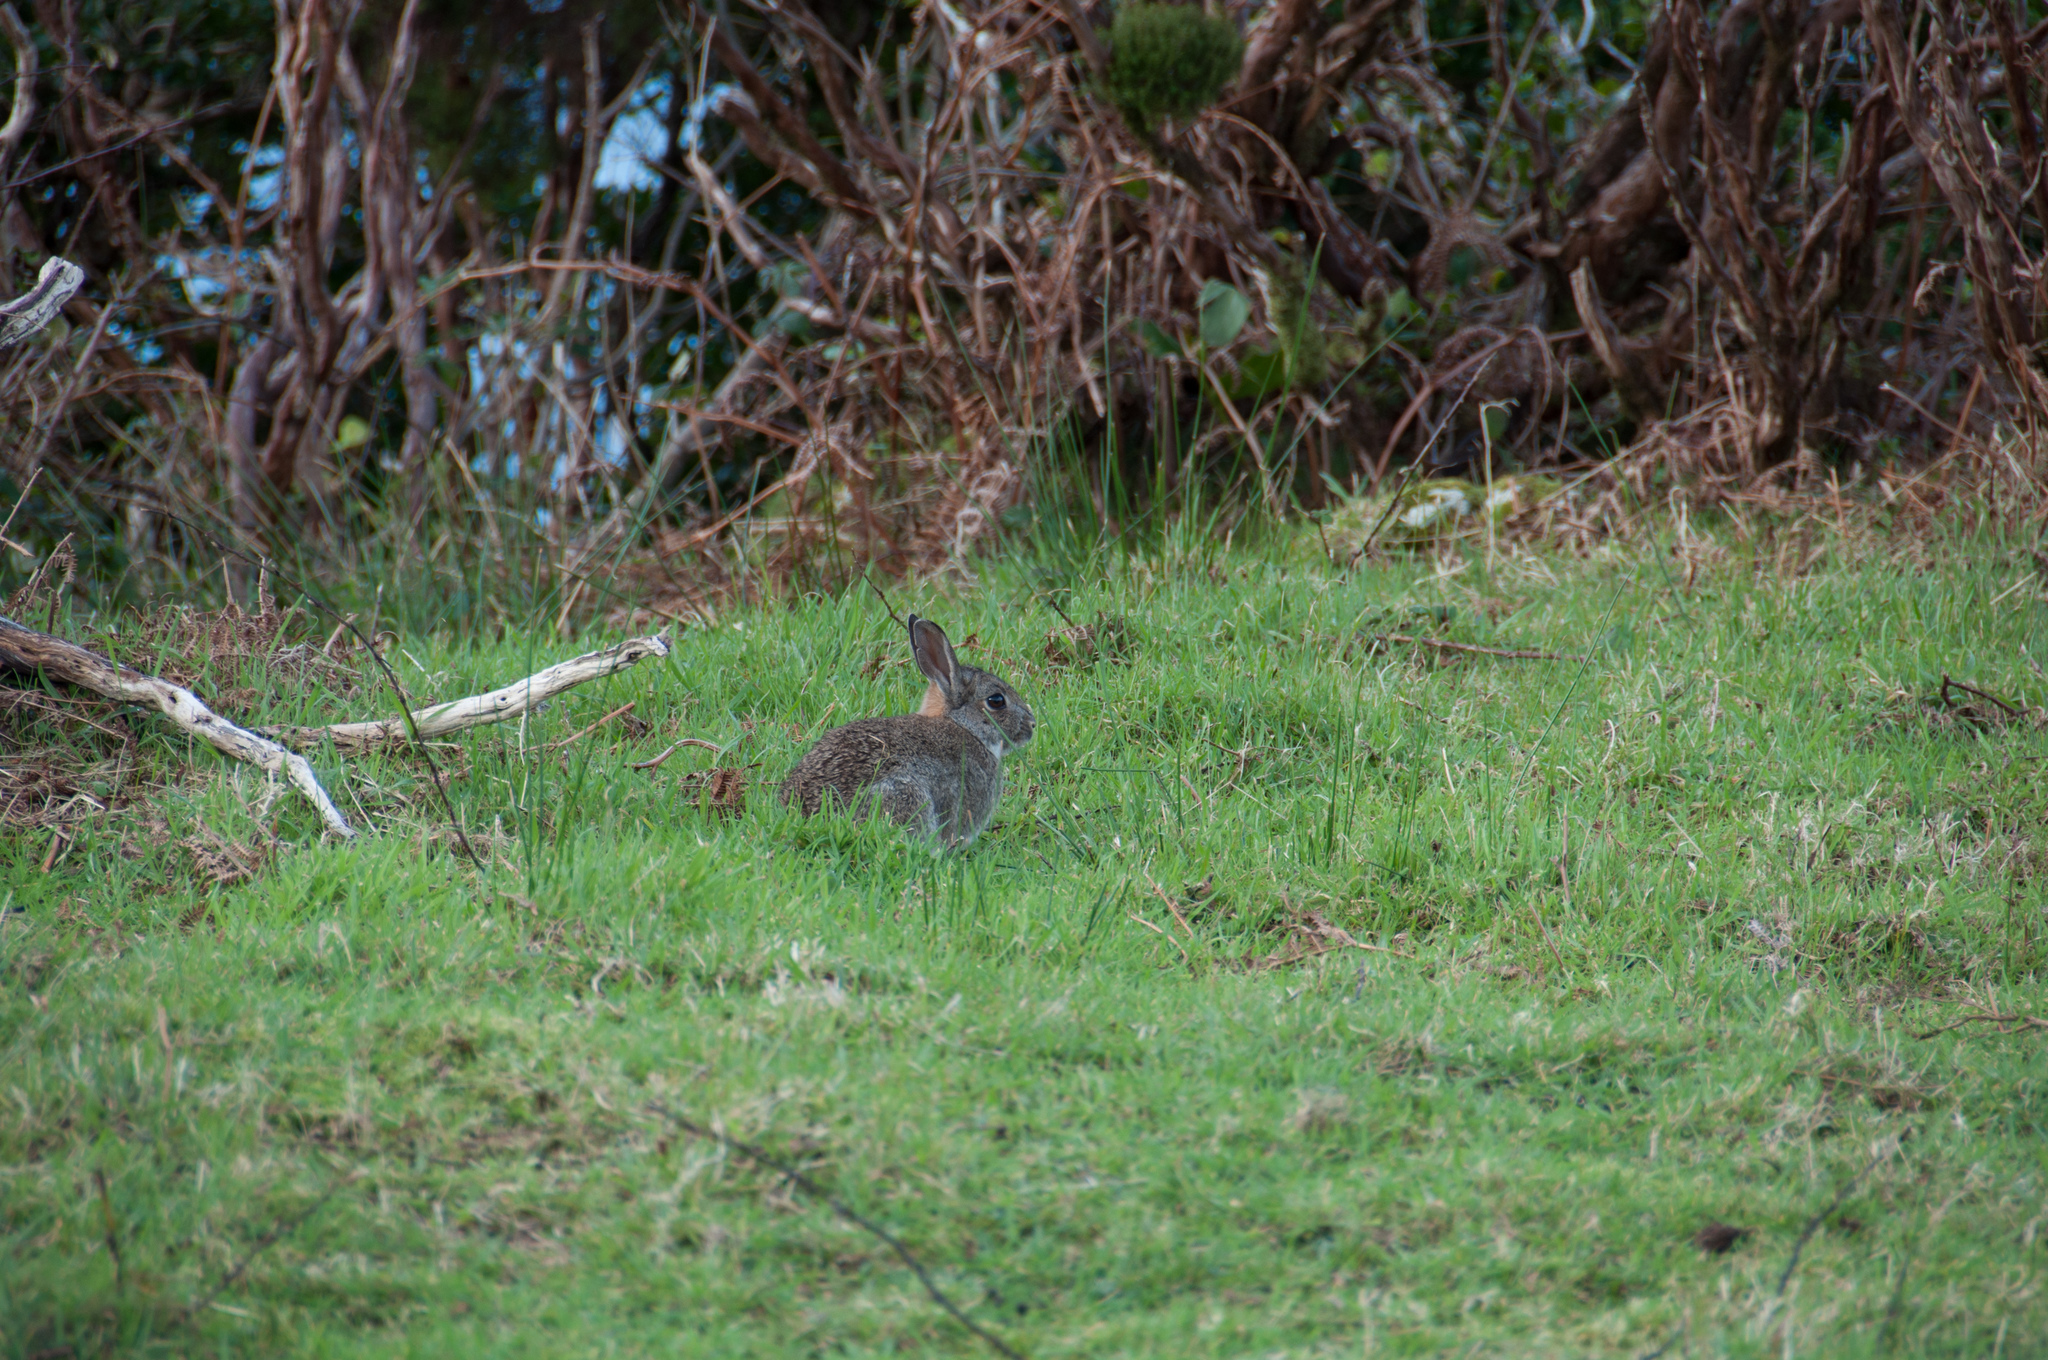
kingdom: Animalia
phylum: Chordata
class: Mammalia
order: Lagomorpha
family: Leporidae
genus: Oryctolagus
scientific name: Oryctolagus cuniculus
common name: European rabbit
